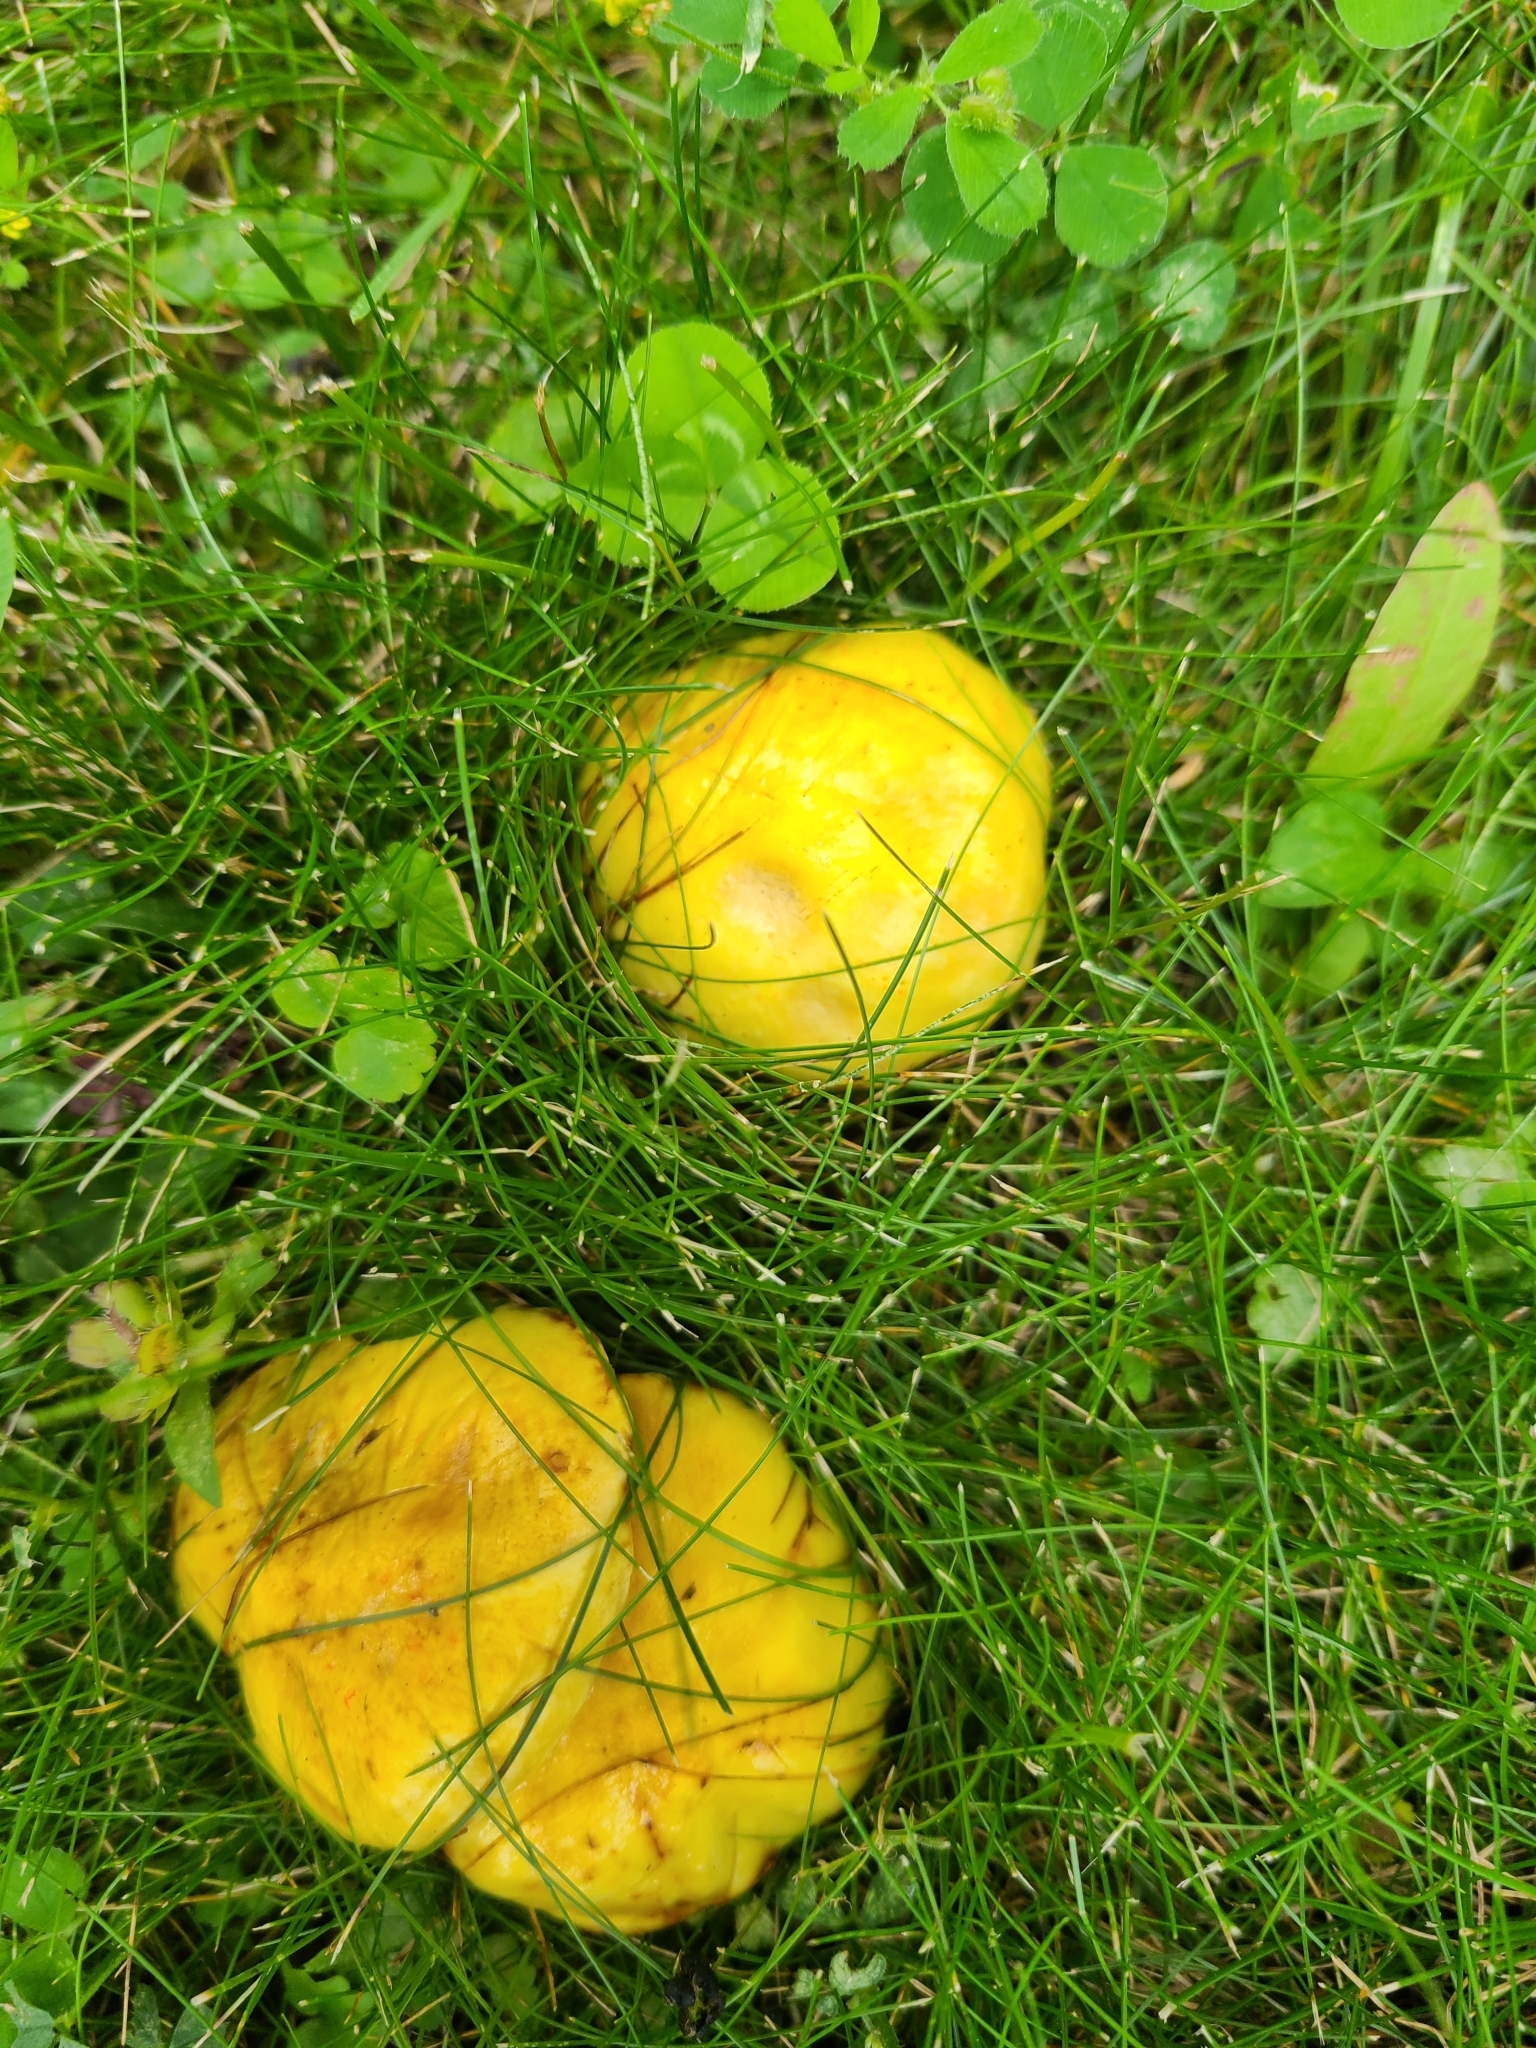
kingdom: Fungi
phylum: Basidiomycota
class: Agaricomycetes
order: Boletales
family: Suillaceae
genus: Suillus
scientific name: Suillus americanus
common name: Chicken fat mushroom
